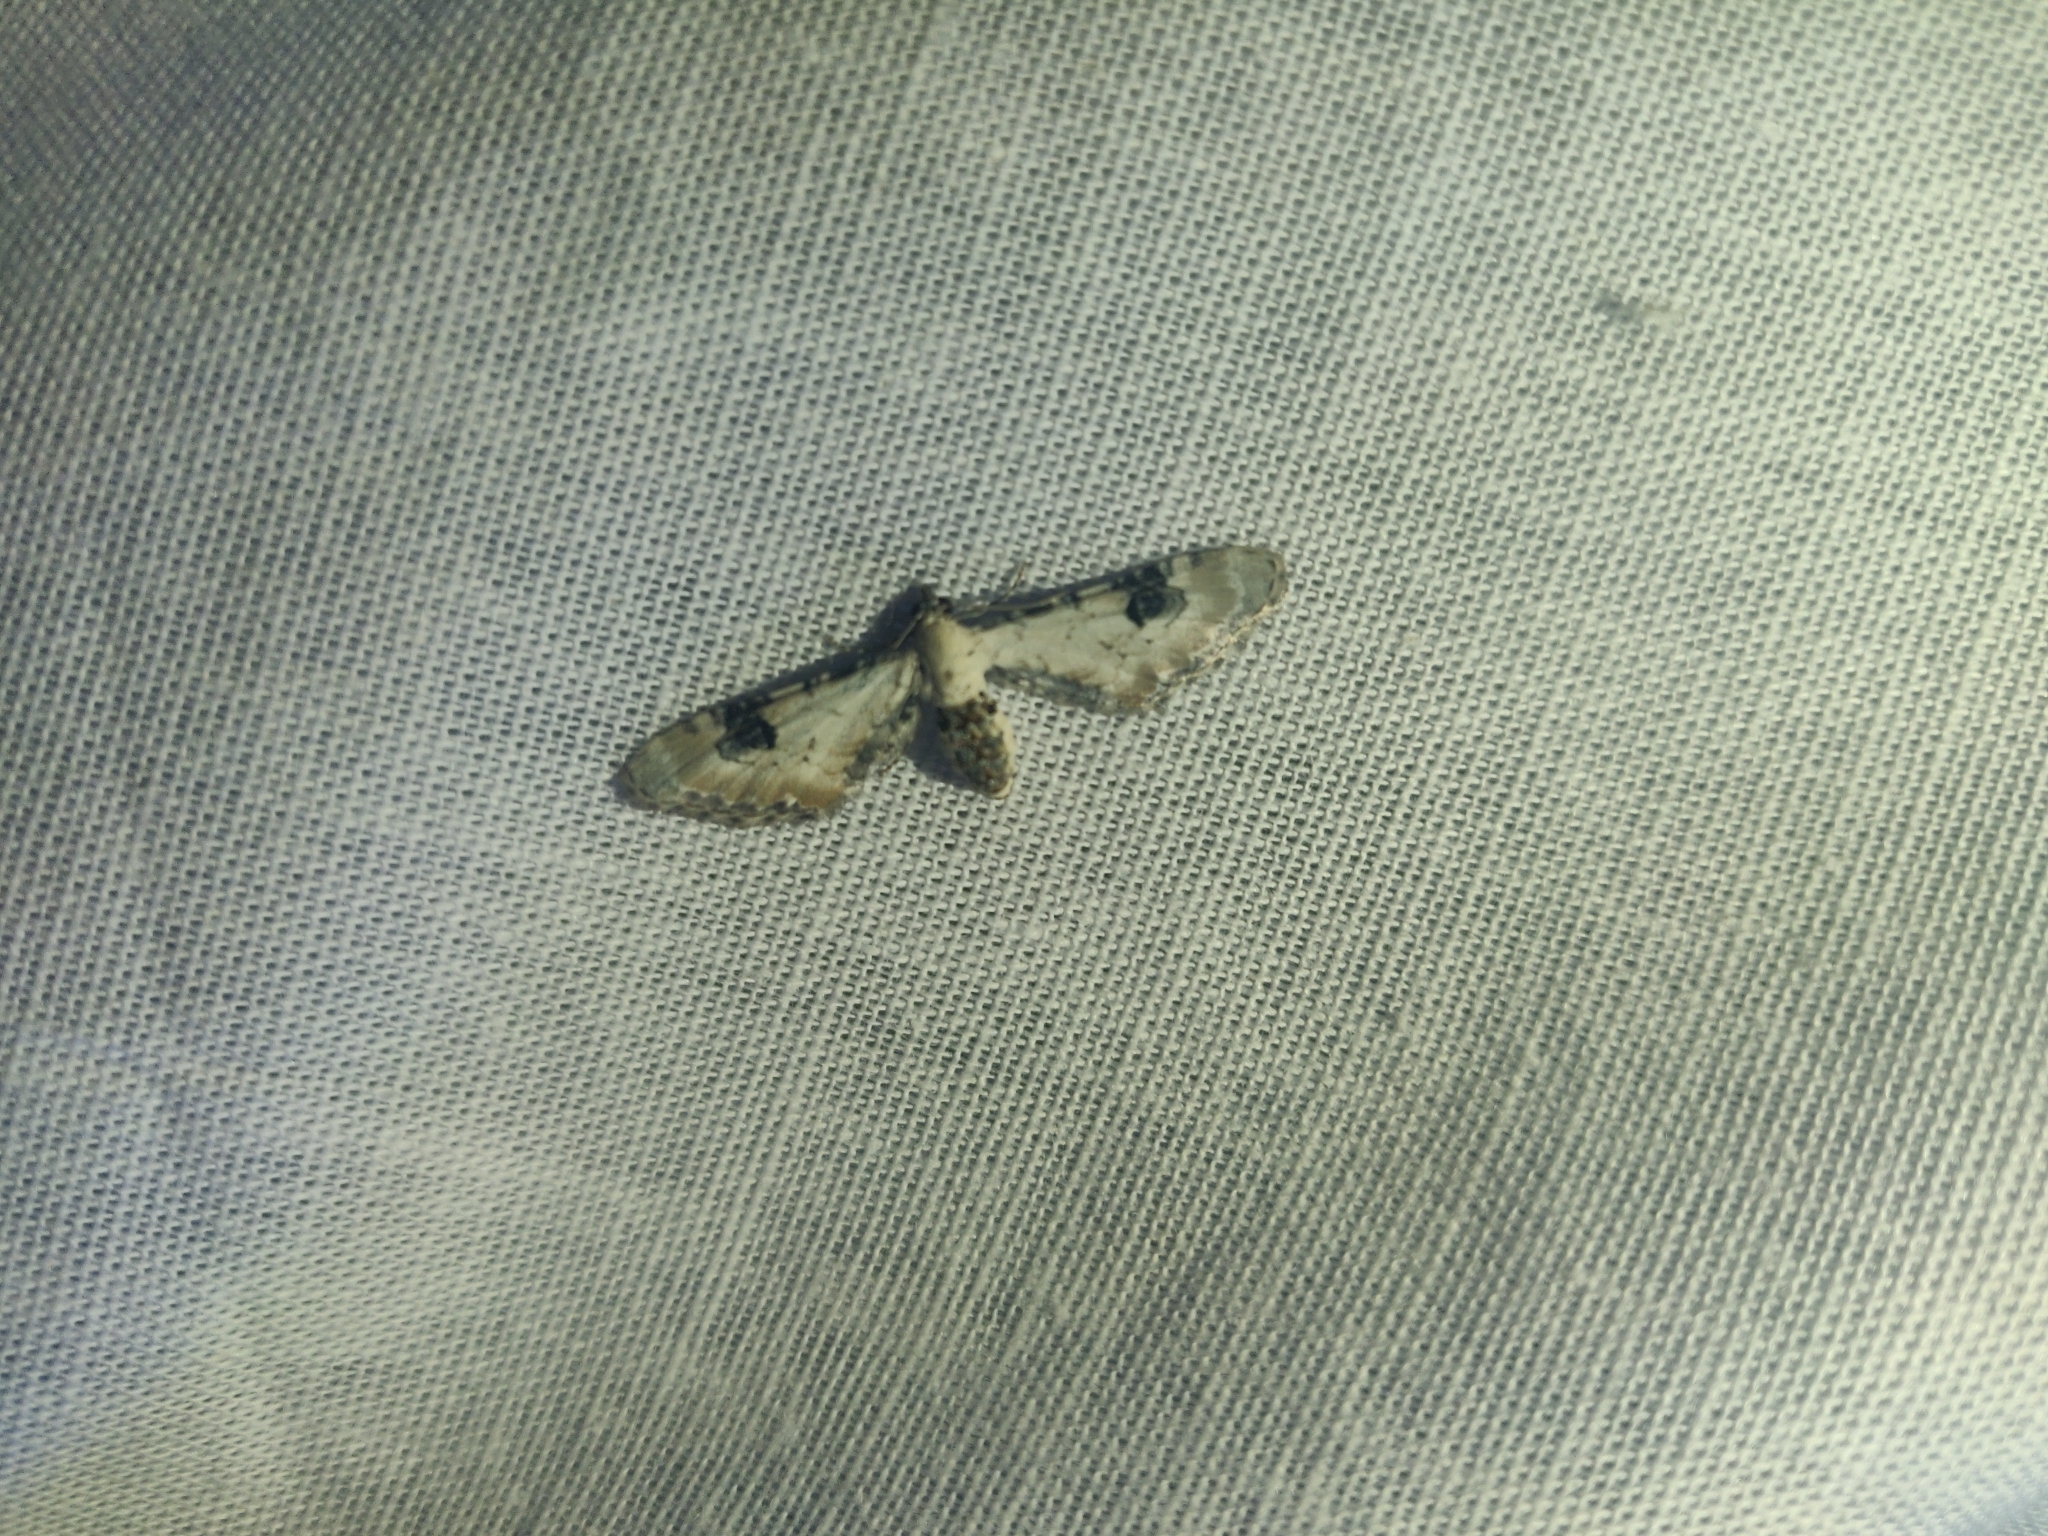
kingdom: Animalia
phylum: Arthropoda
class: Insecta
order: Lepidoptera
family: Geometridae
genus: Eupithecia
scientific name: Eupithecia centaureata
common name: Lime-speck pug
